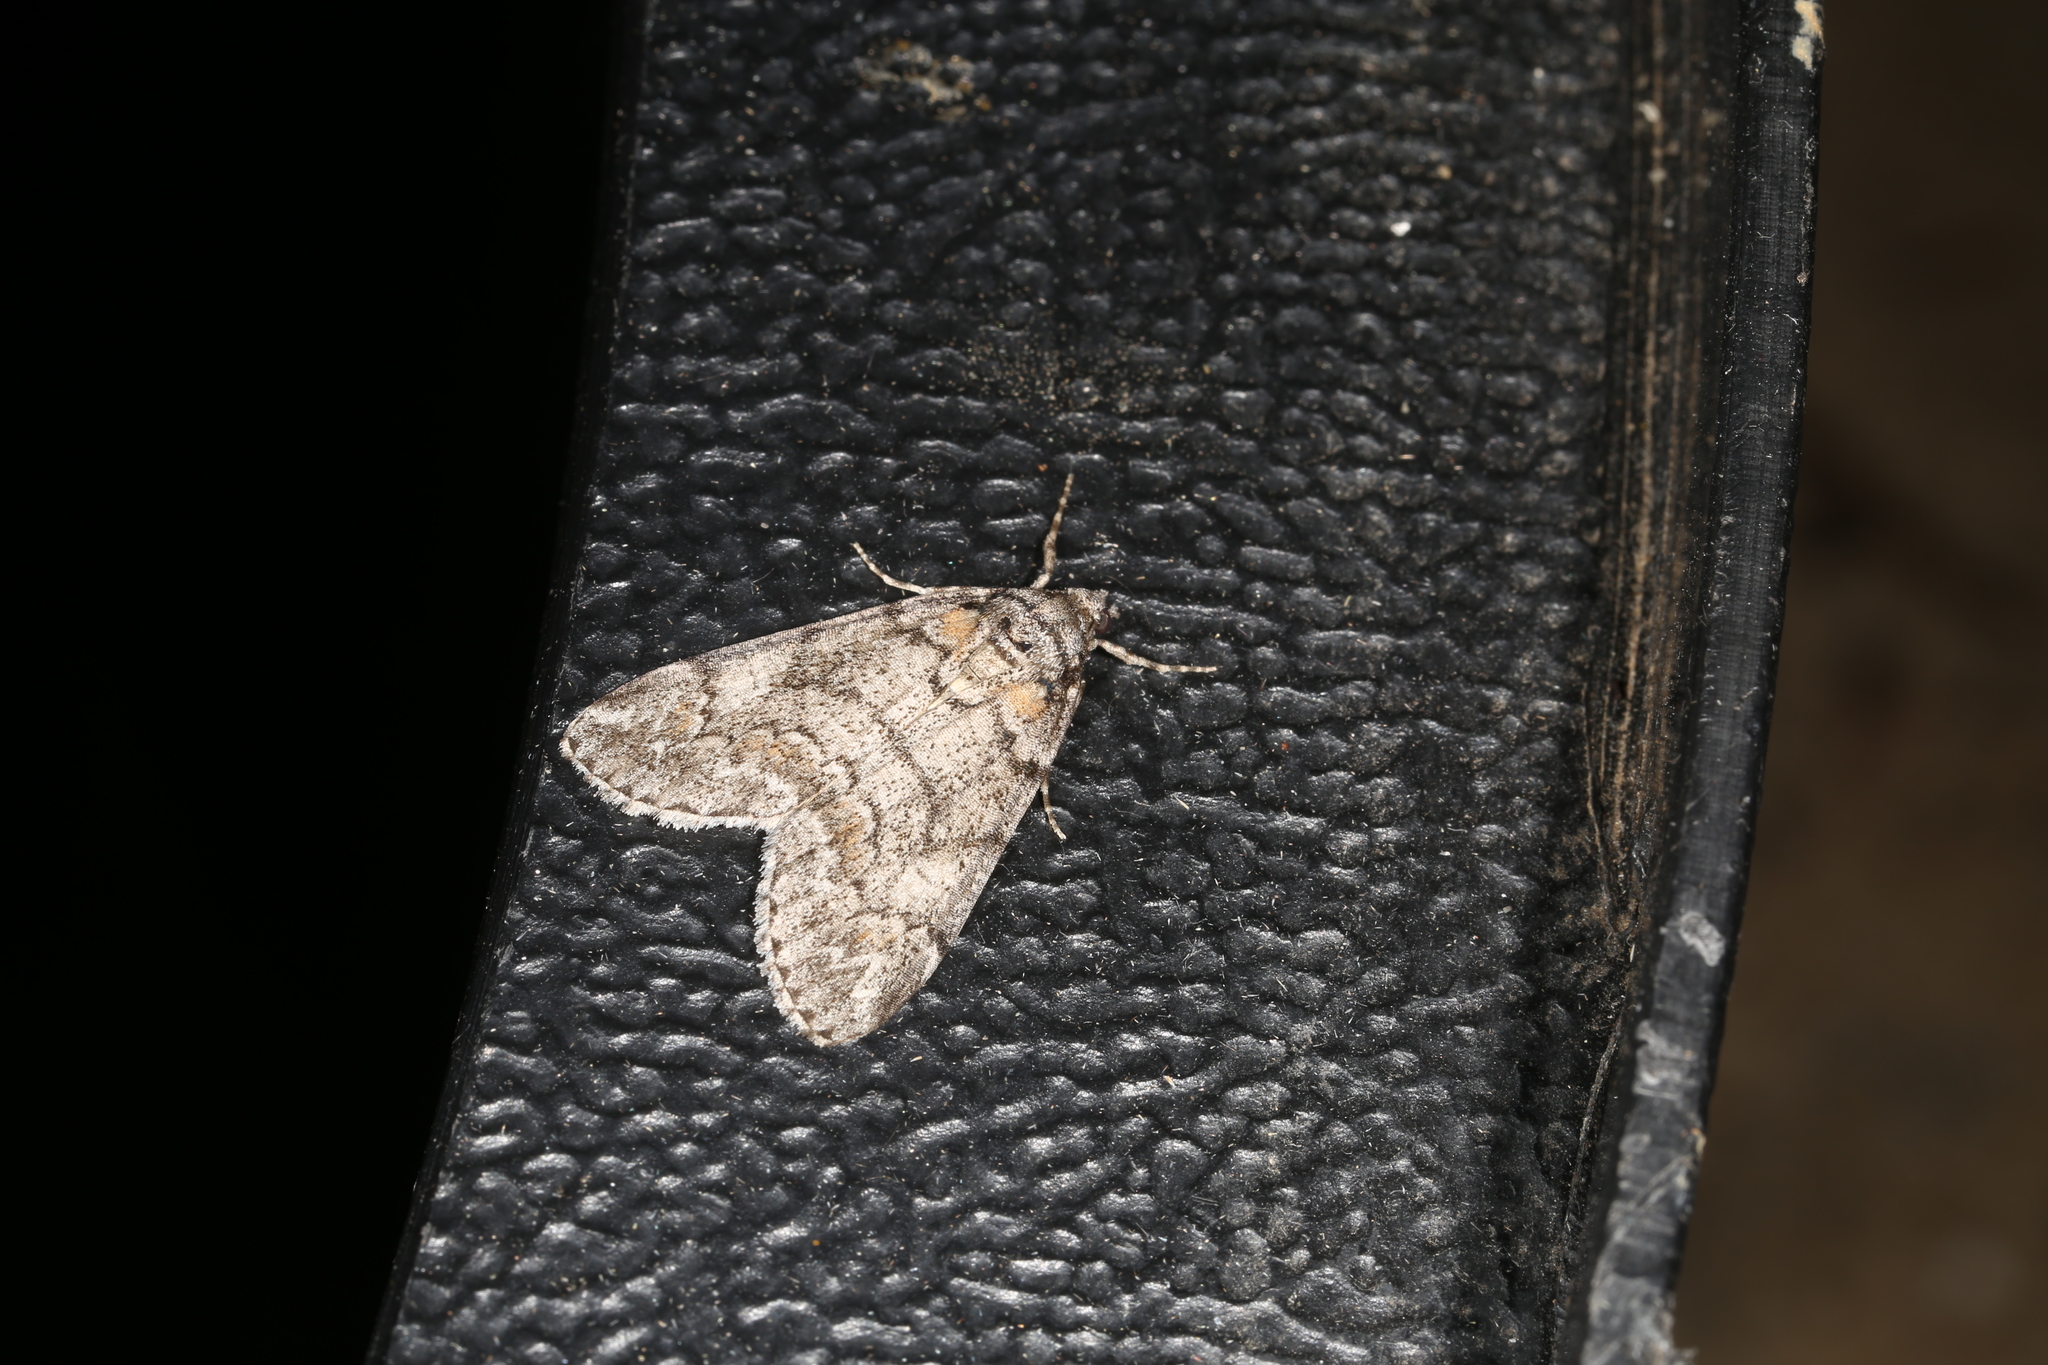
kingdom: Animalia
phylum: Arthropoda
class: Insecta
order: Lepidoptera
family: Geometridae
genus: Smyriodes
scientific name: Smyriodes trigramma
